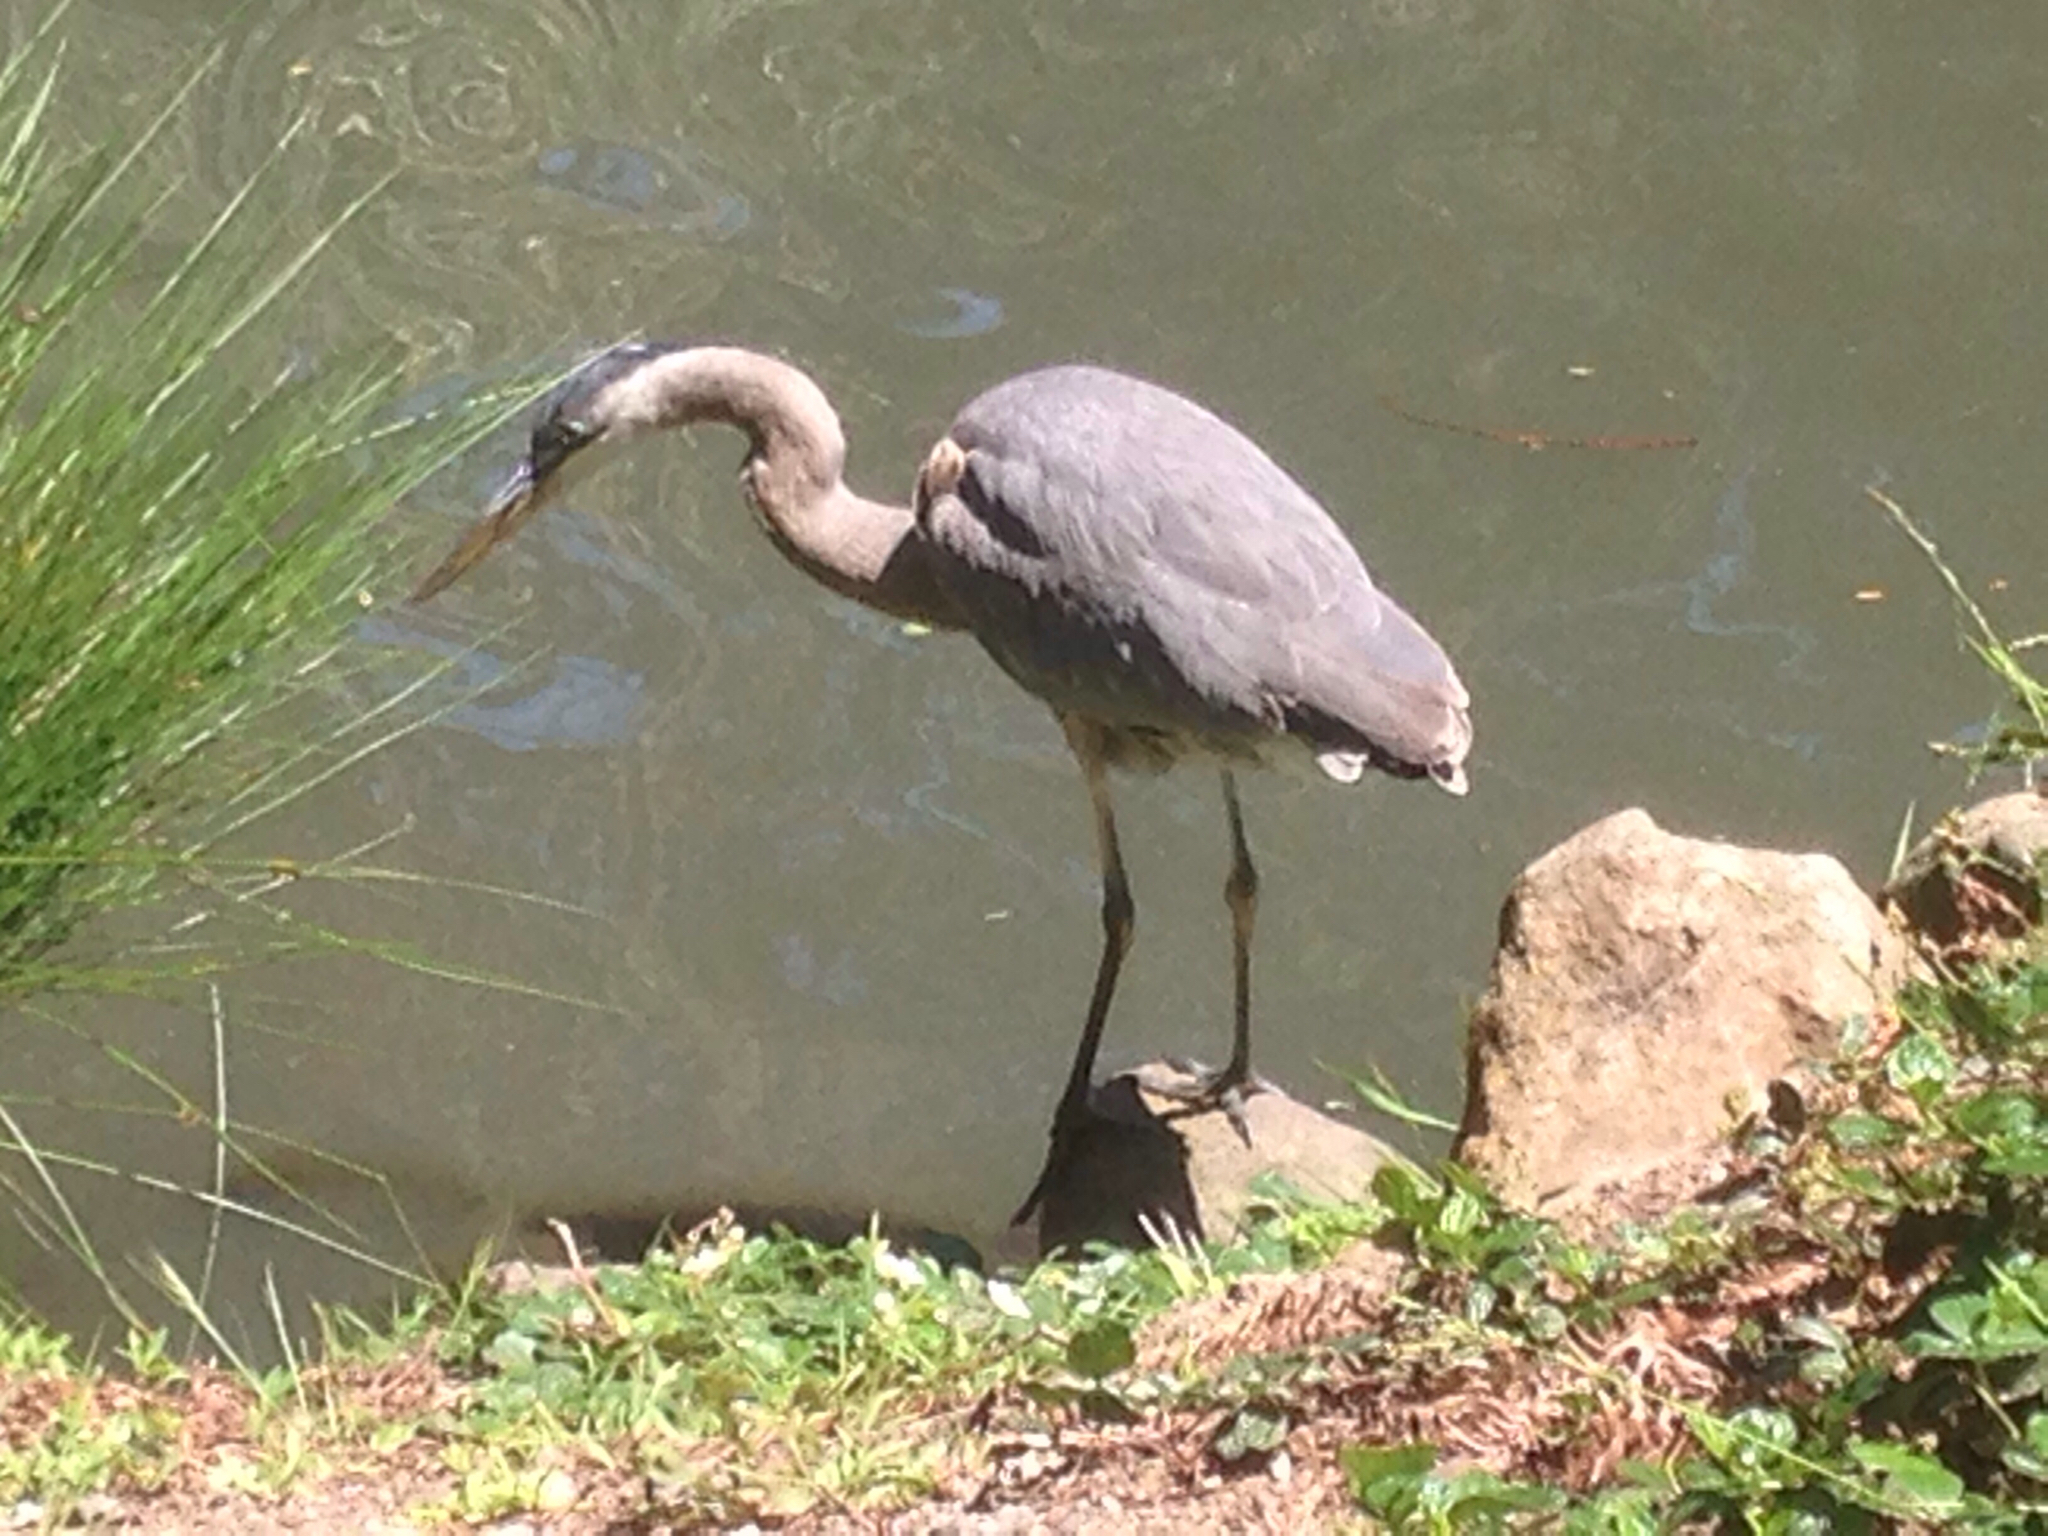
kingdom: Animalia
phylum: Chordata
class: Aves
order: Pelecaniformes
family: Ardeidae
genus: Ardea
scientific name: Ardea herodias
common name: Great blue heron
